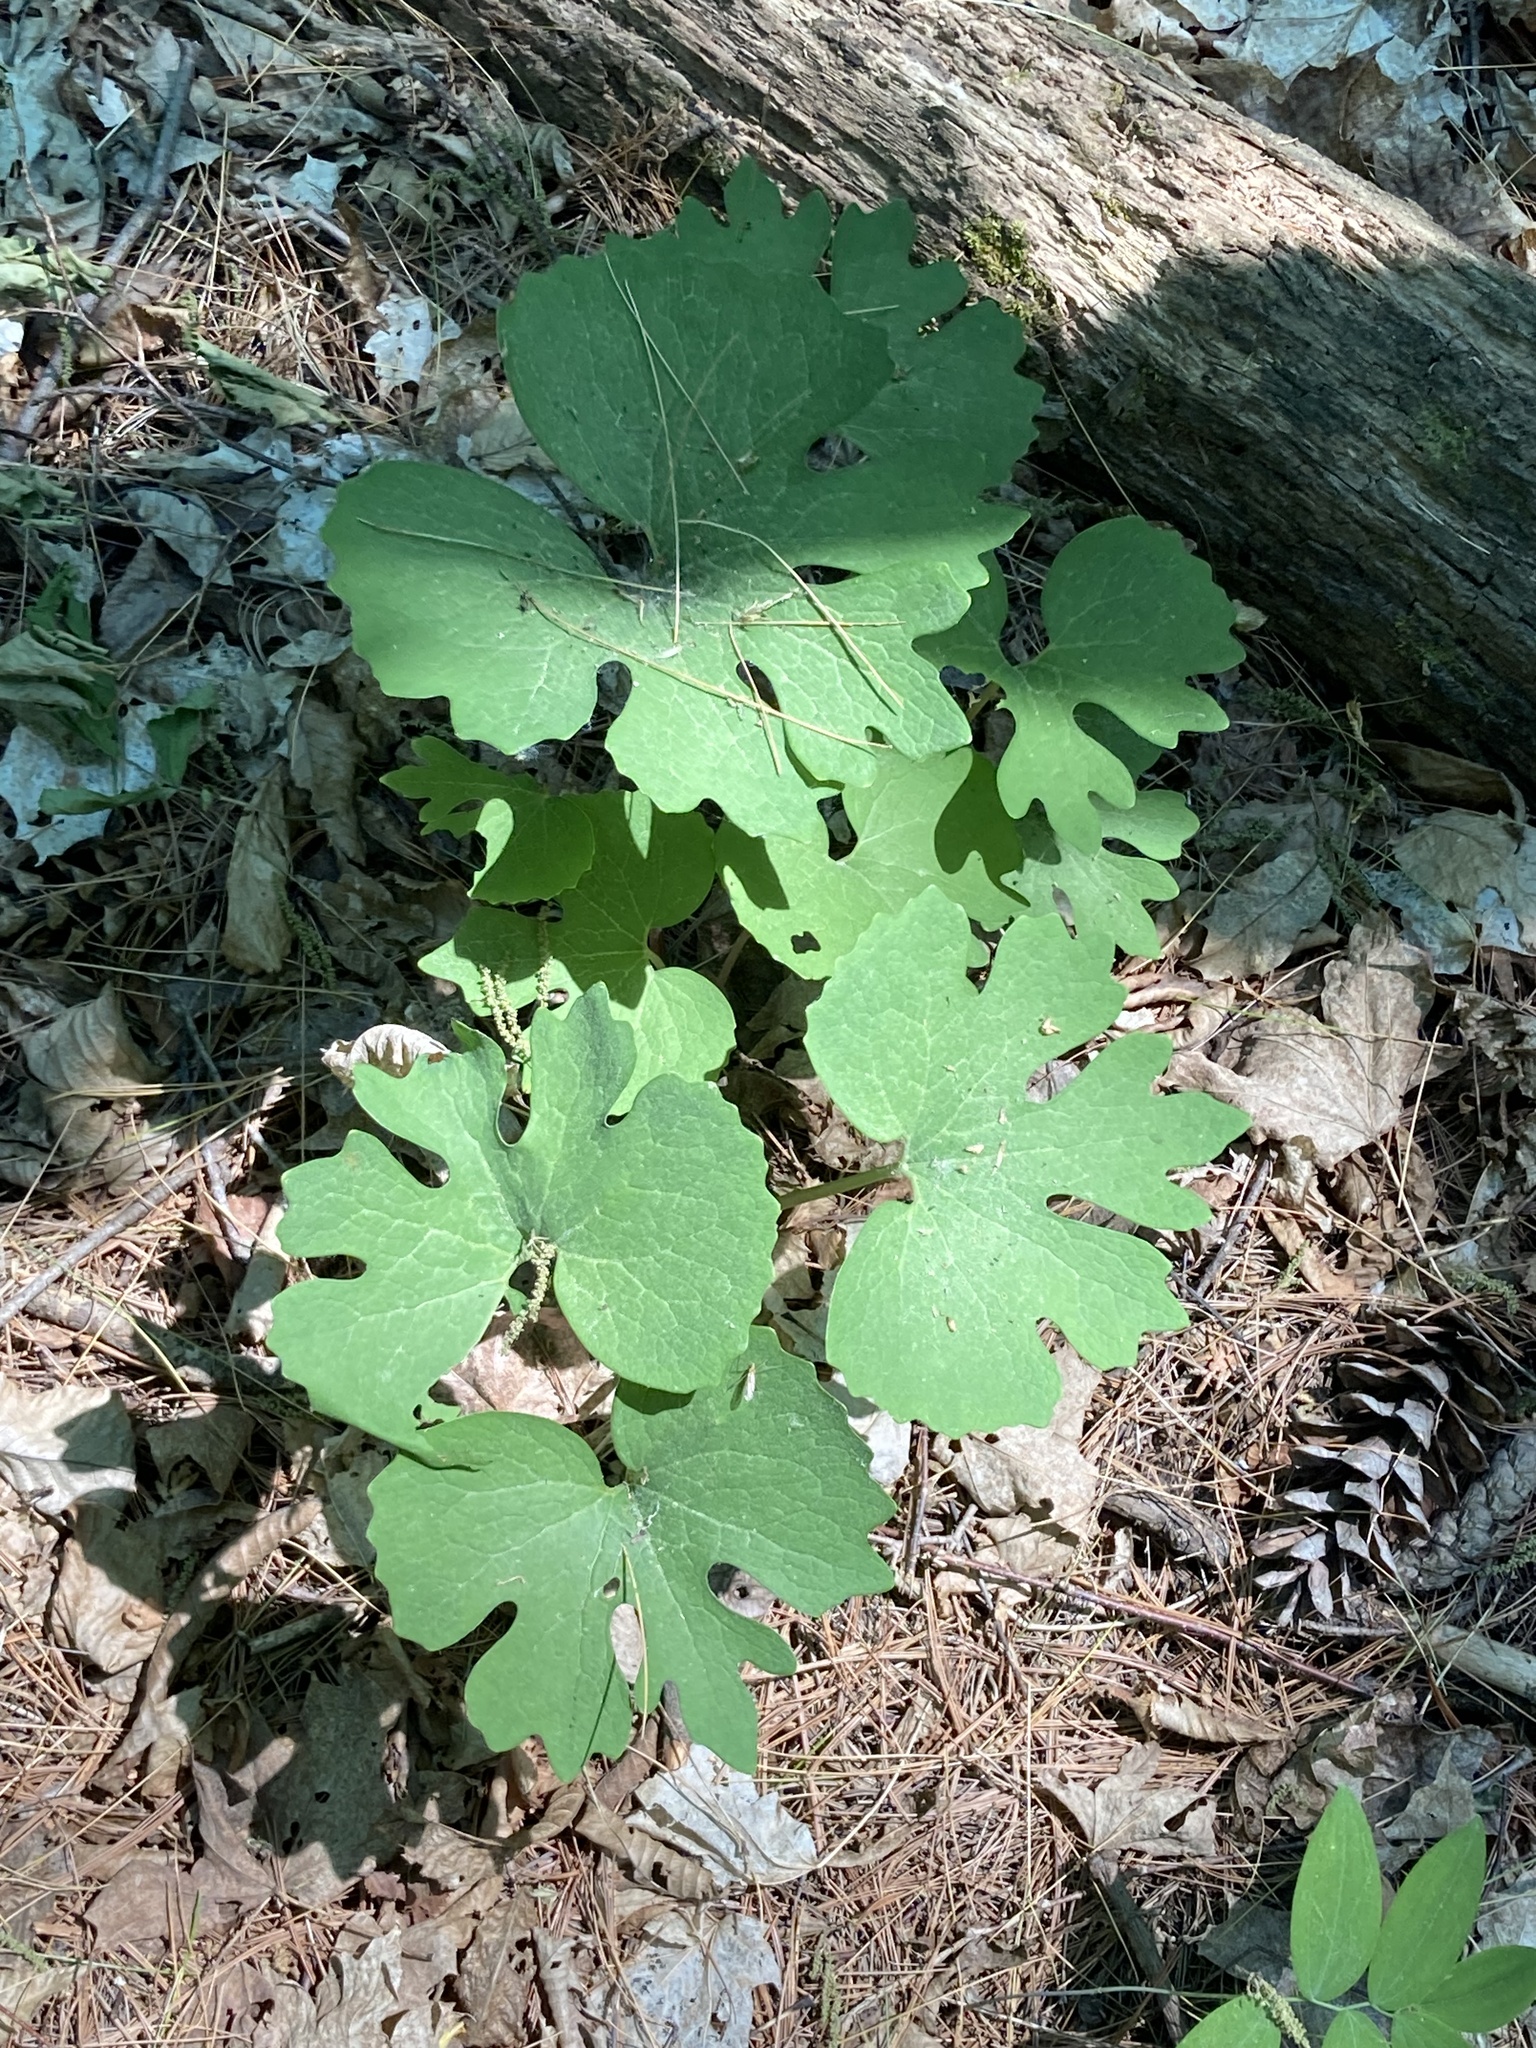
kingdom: Plantae
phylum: Tracheophyta
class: Magnoliopsida
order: Ranunculales
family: Papaveraceae
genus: Sanguinaria
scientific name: Sanguinaria canadensis
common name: Bloodroot
